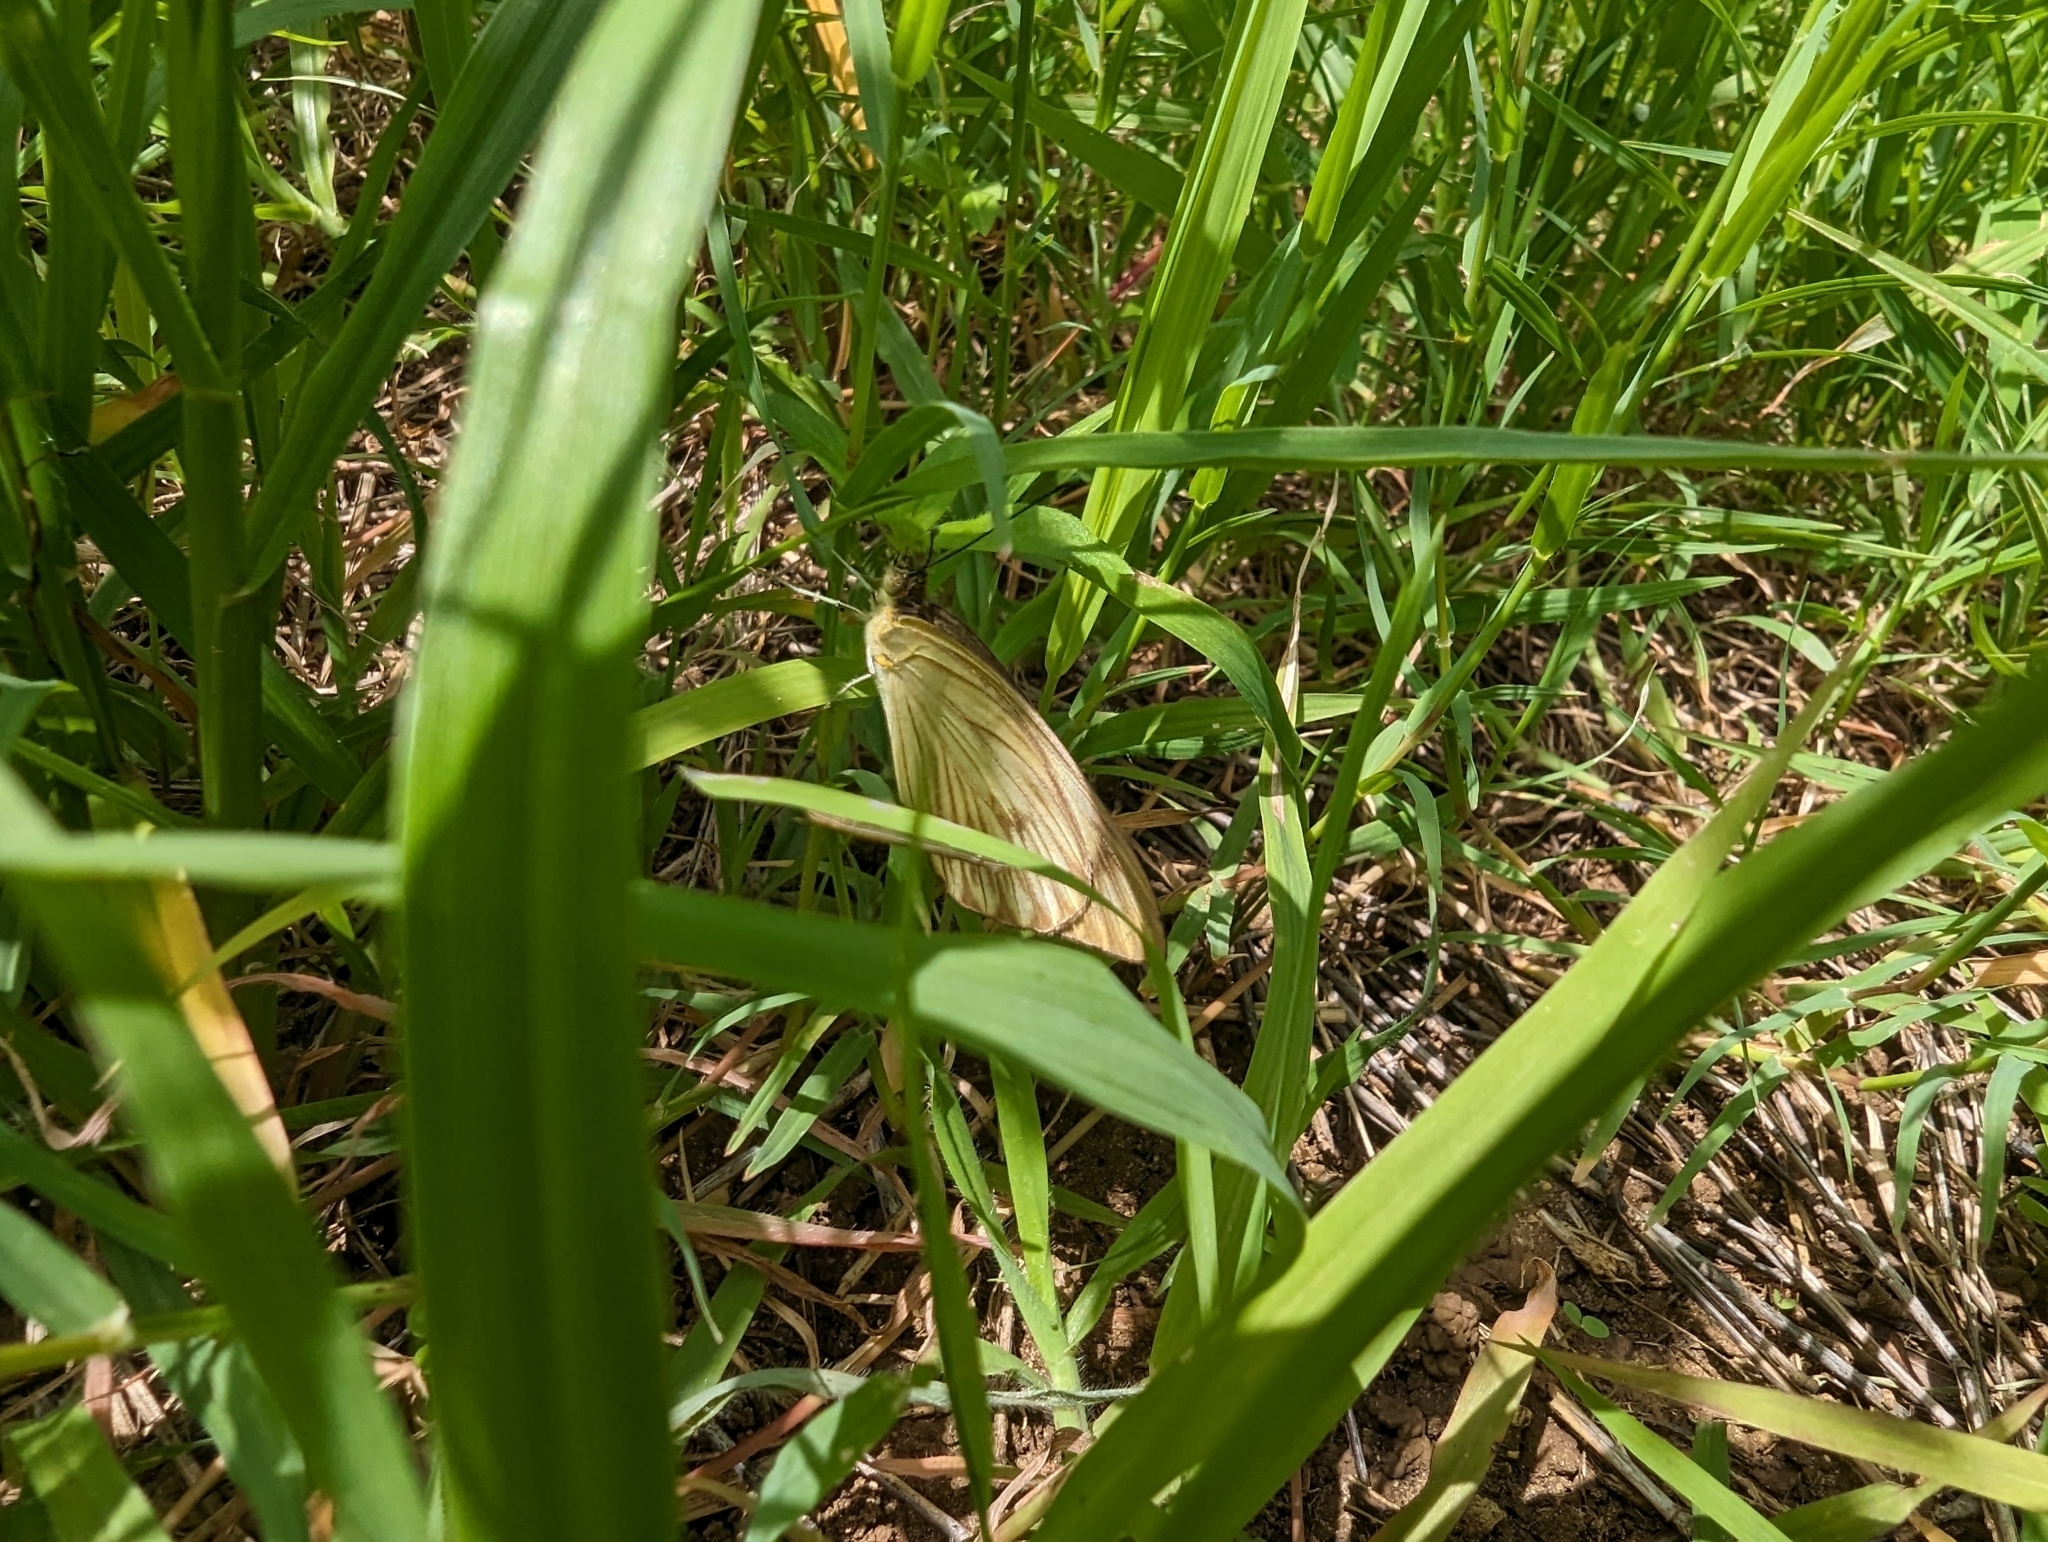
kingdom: Animalia
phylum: Arthropoda
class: Insecta
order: Lepidoptera
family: Pieridae
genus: Ascia
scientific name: Ascia monuste
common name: Great southern white
